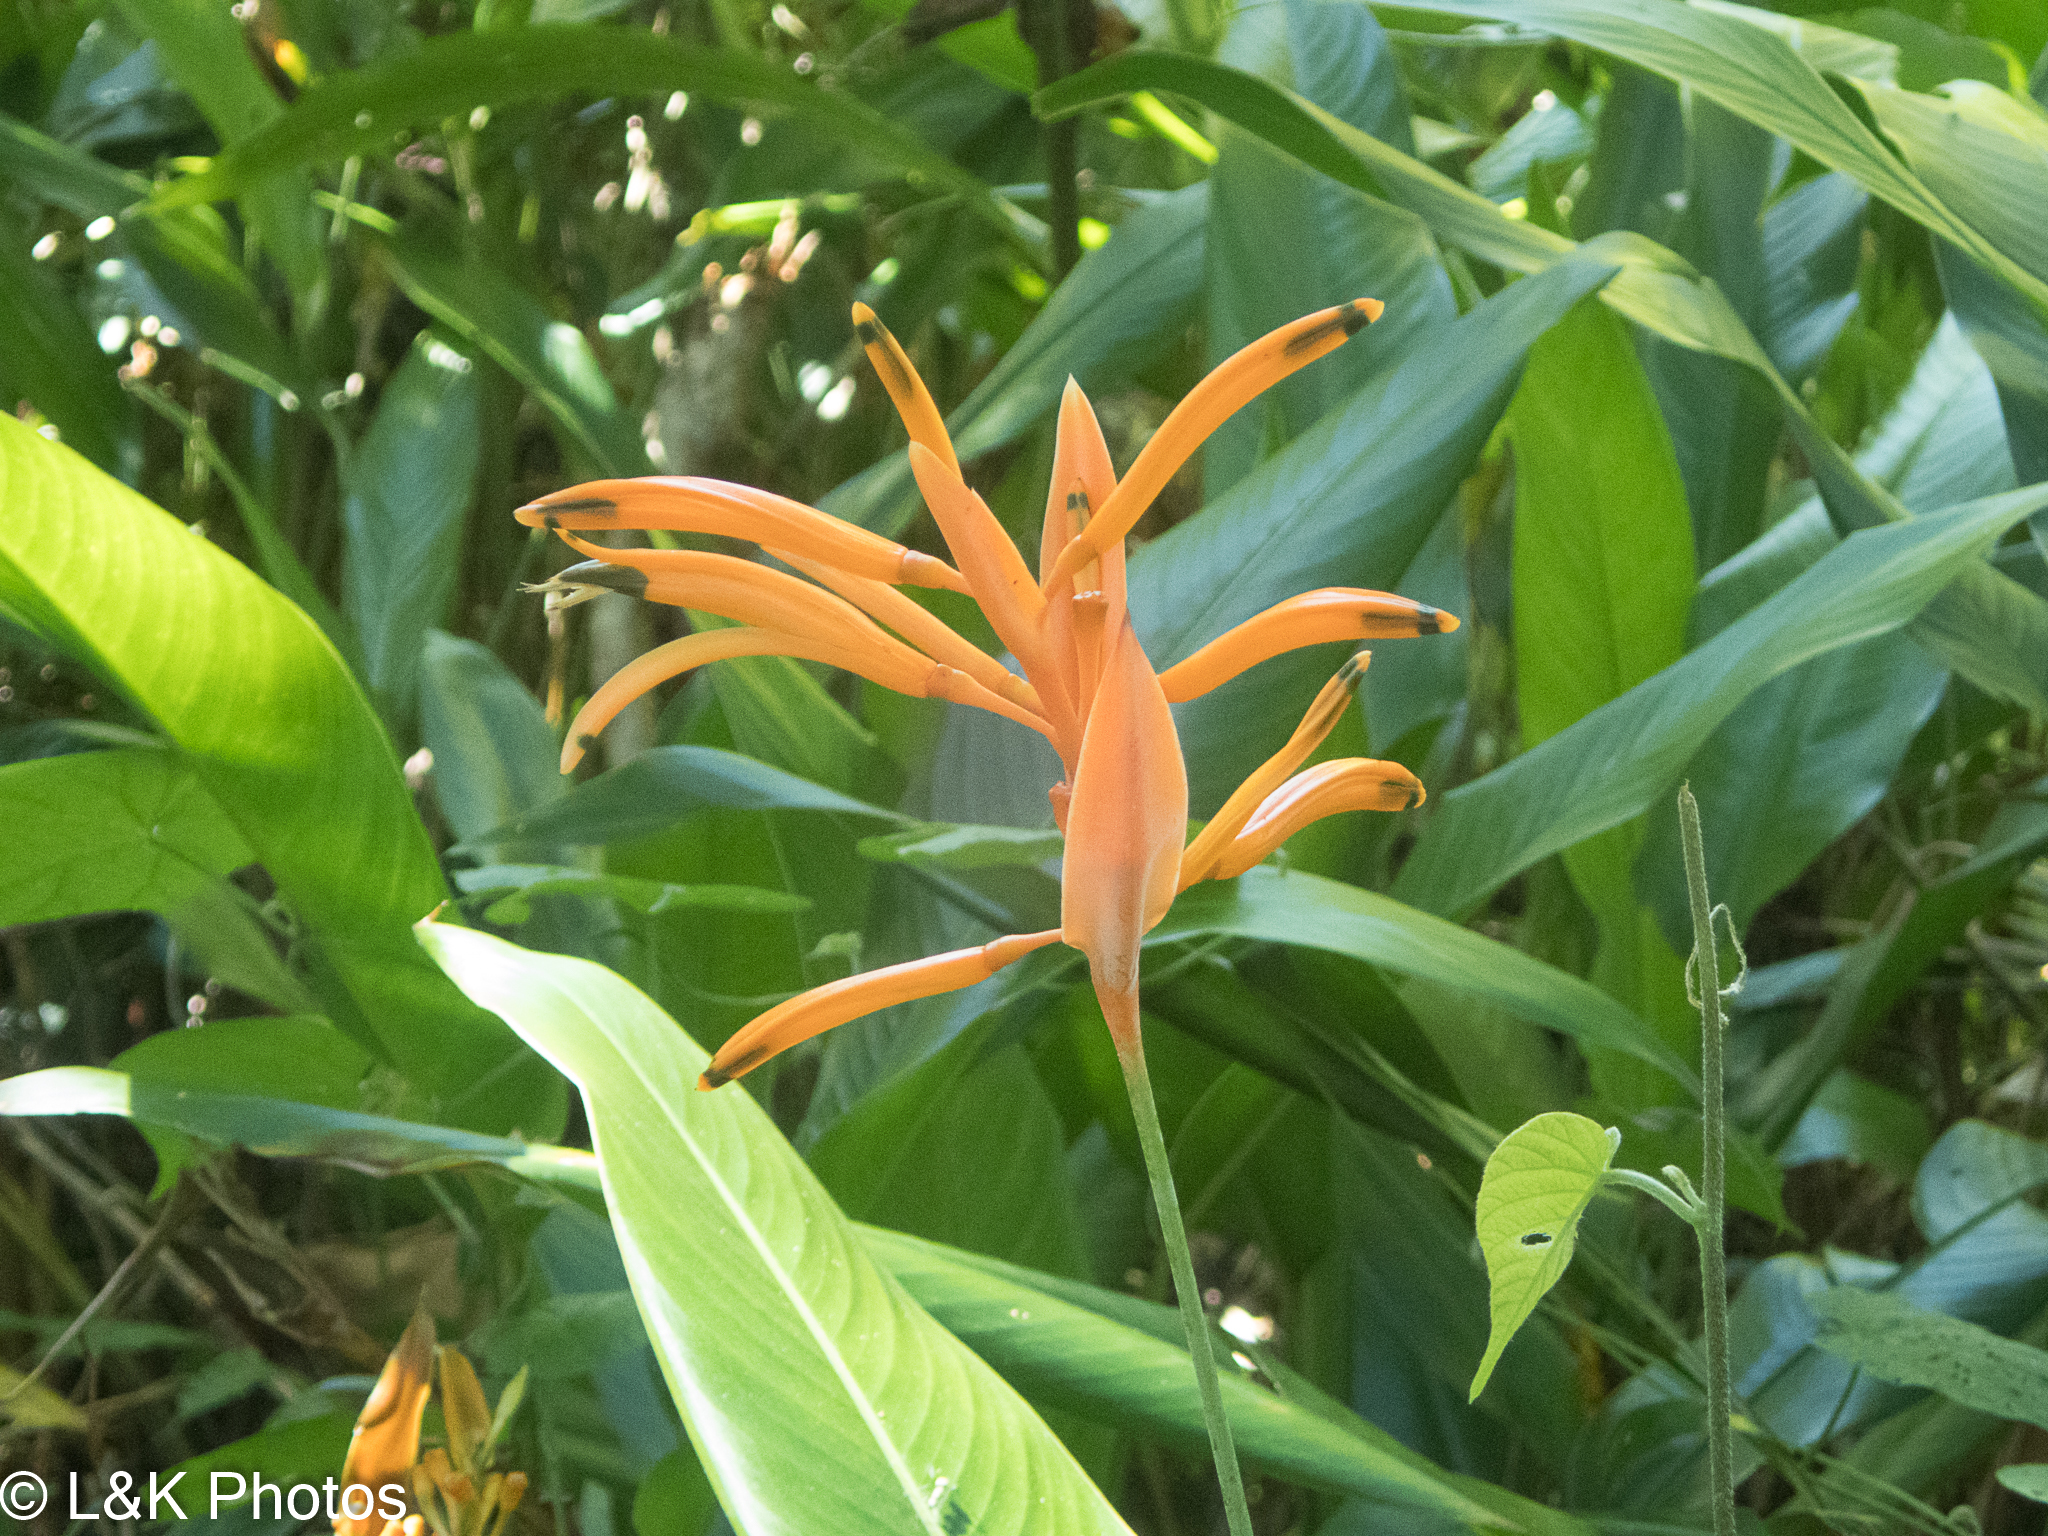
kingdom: Plantae
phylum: Tracheophyta
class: Liliopsida
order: Zingiberales
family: Heliconiaceae
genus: Heliconia
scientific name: Heliconia psittacorum
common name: Parrot's-flower
